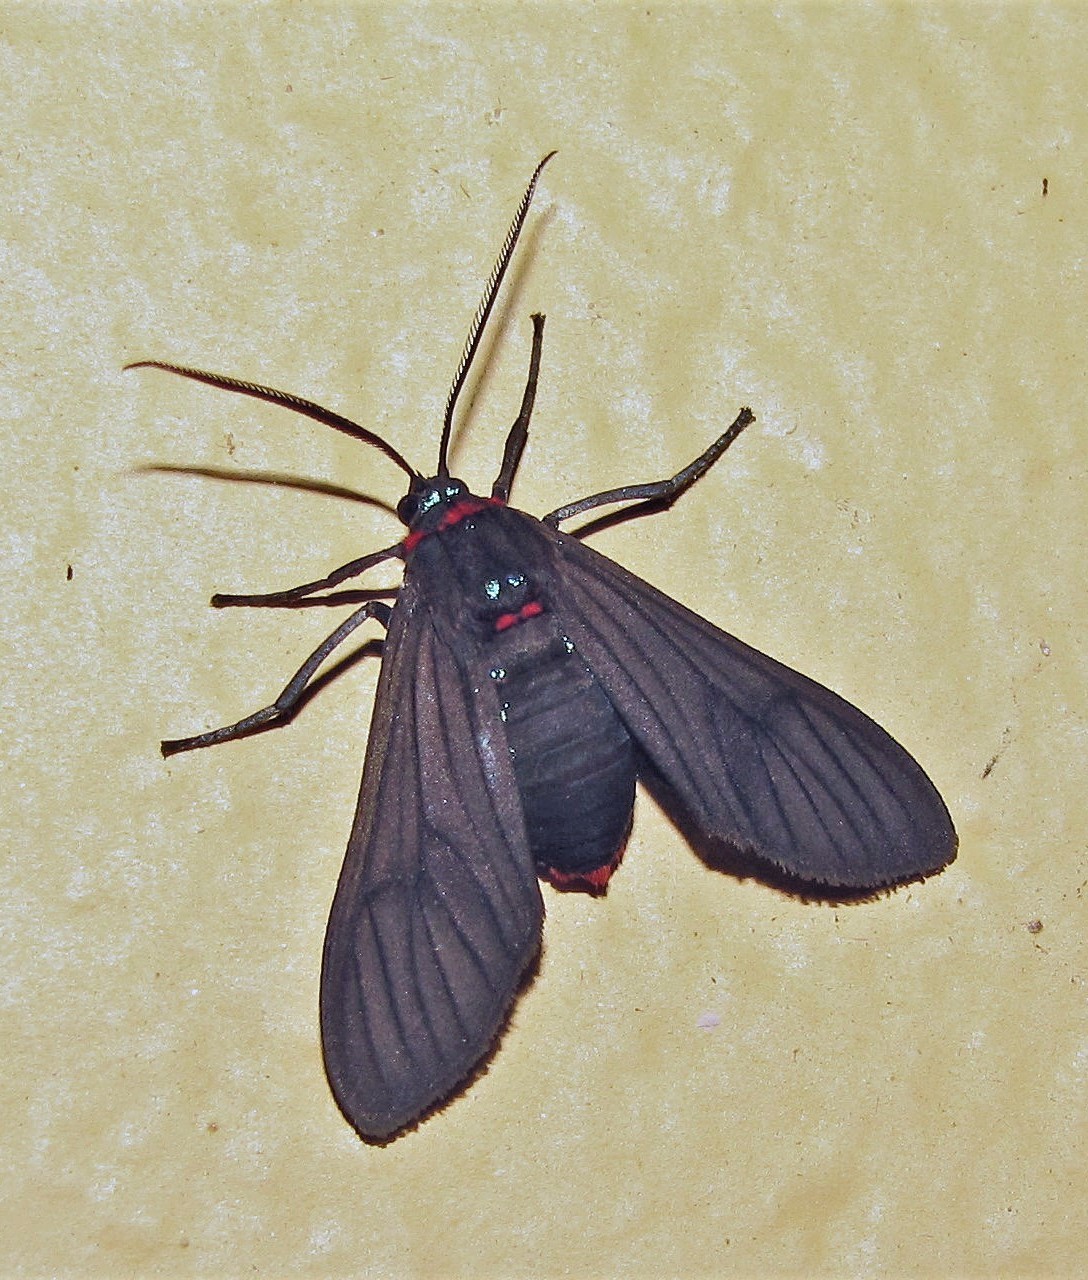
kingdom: Animalia
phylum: Arthropoda
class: Insecta
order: Lepidoptera
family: Erebidae
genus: Saurita
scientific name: Saurita cassandra
